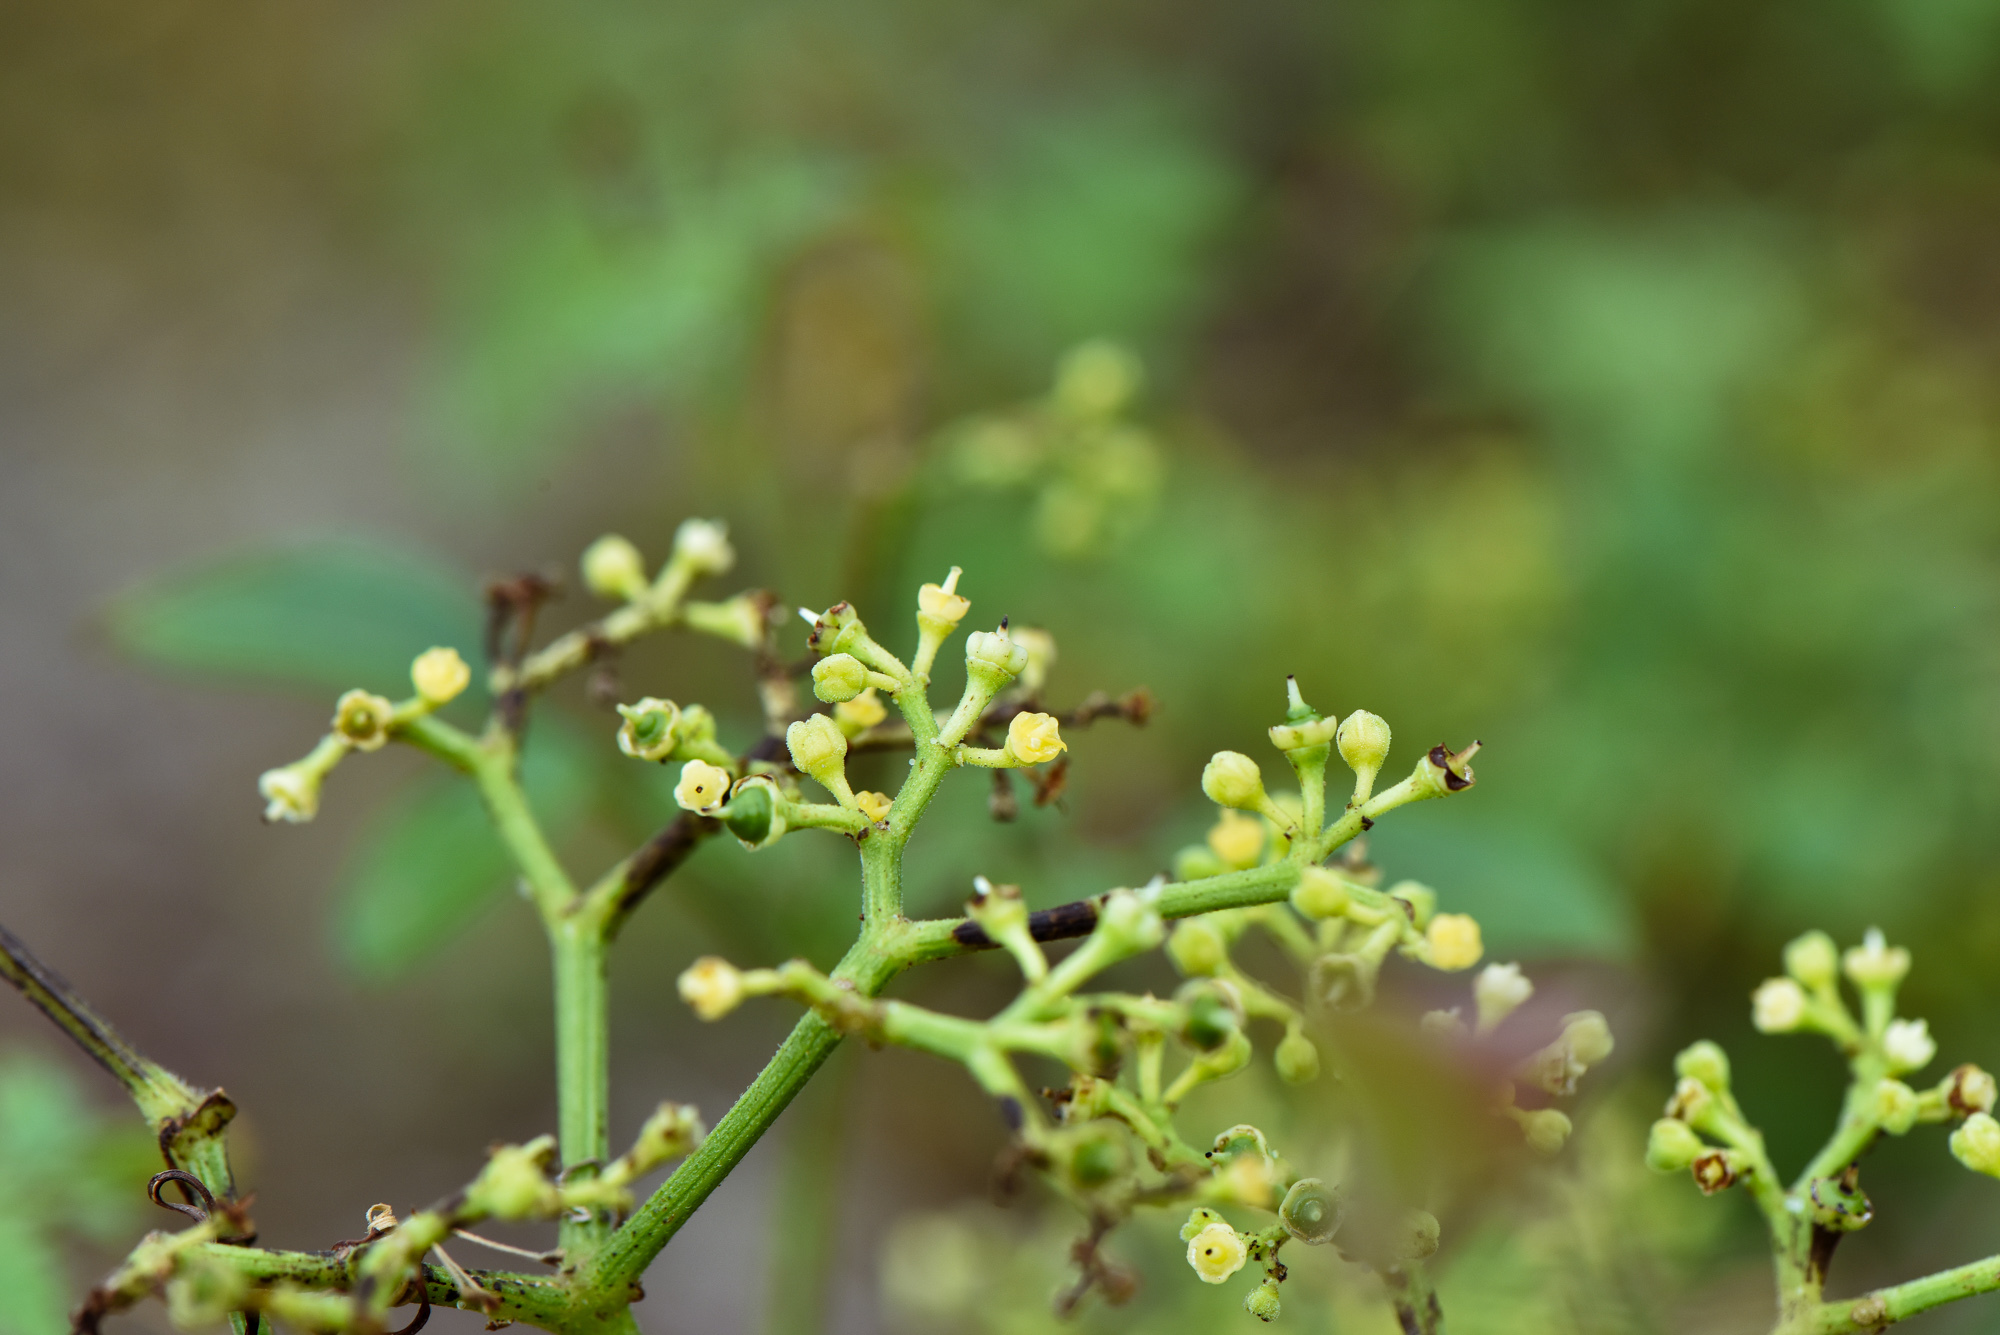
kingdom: Plantae
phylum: Tracheophyta
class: Magnoliopsida
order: Vitales
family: Vitaceae
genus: Causonis
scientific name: Causonis japonica
